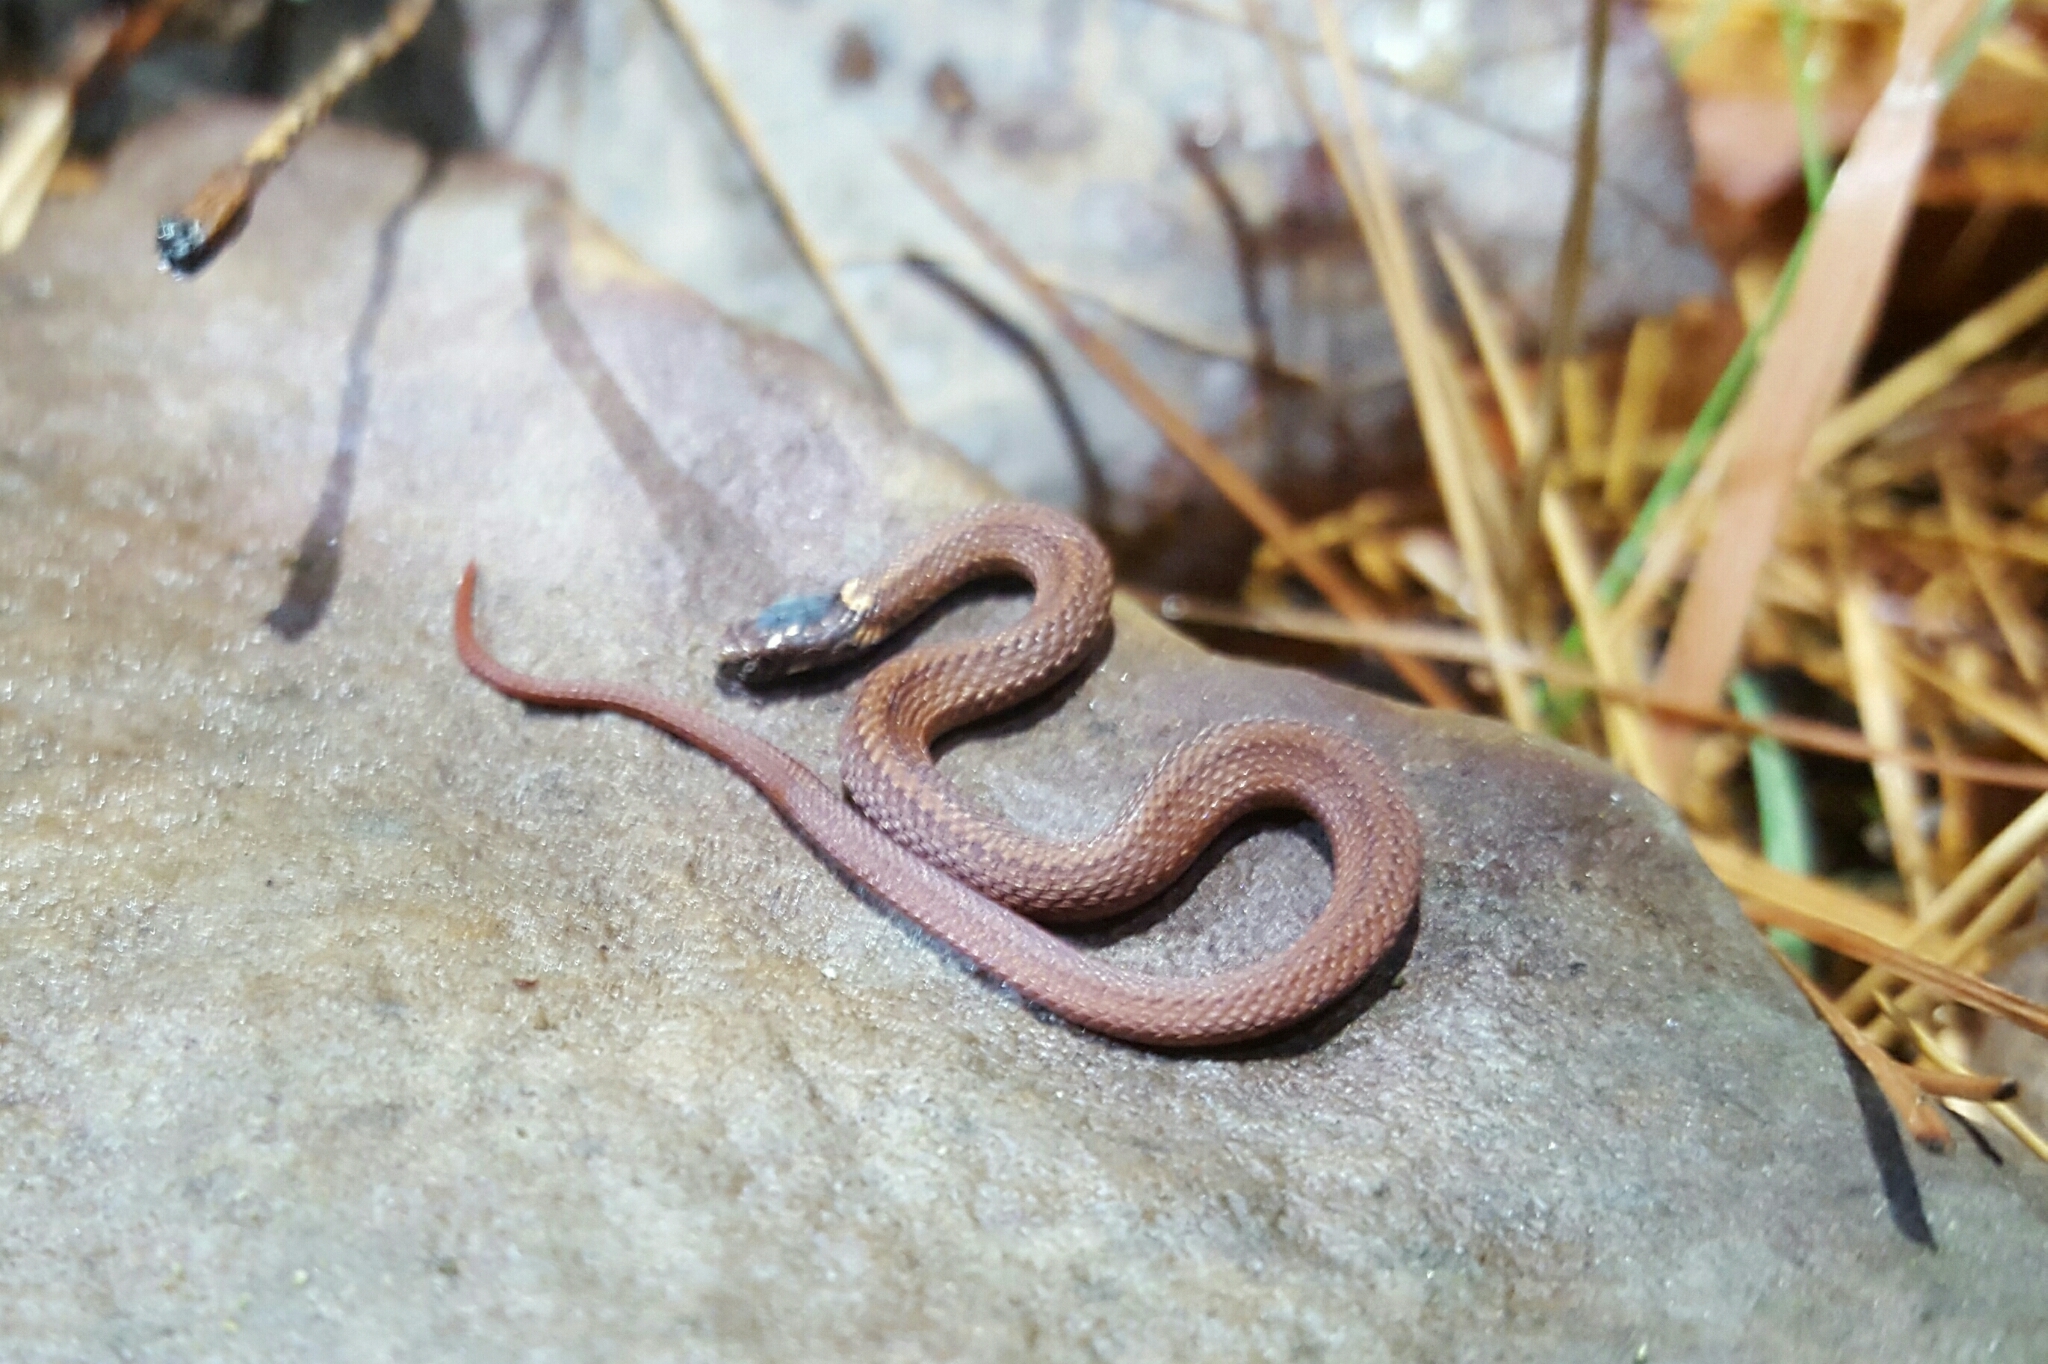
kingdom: Animalia
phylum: Chordata
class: Squamata
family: Colubridae
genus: Storeria
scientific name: Storeria occipitomaculata
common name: Redbelly snake
